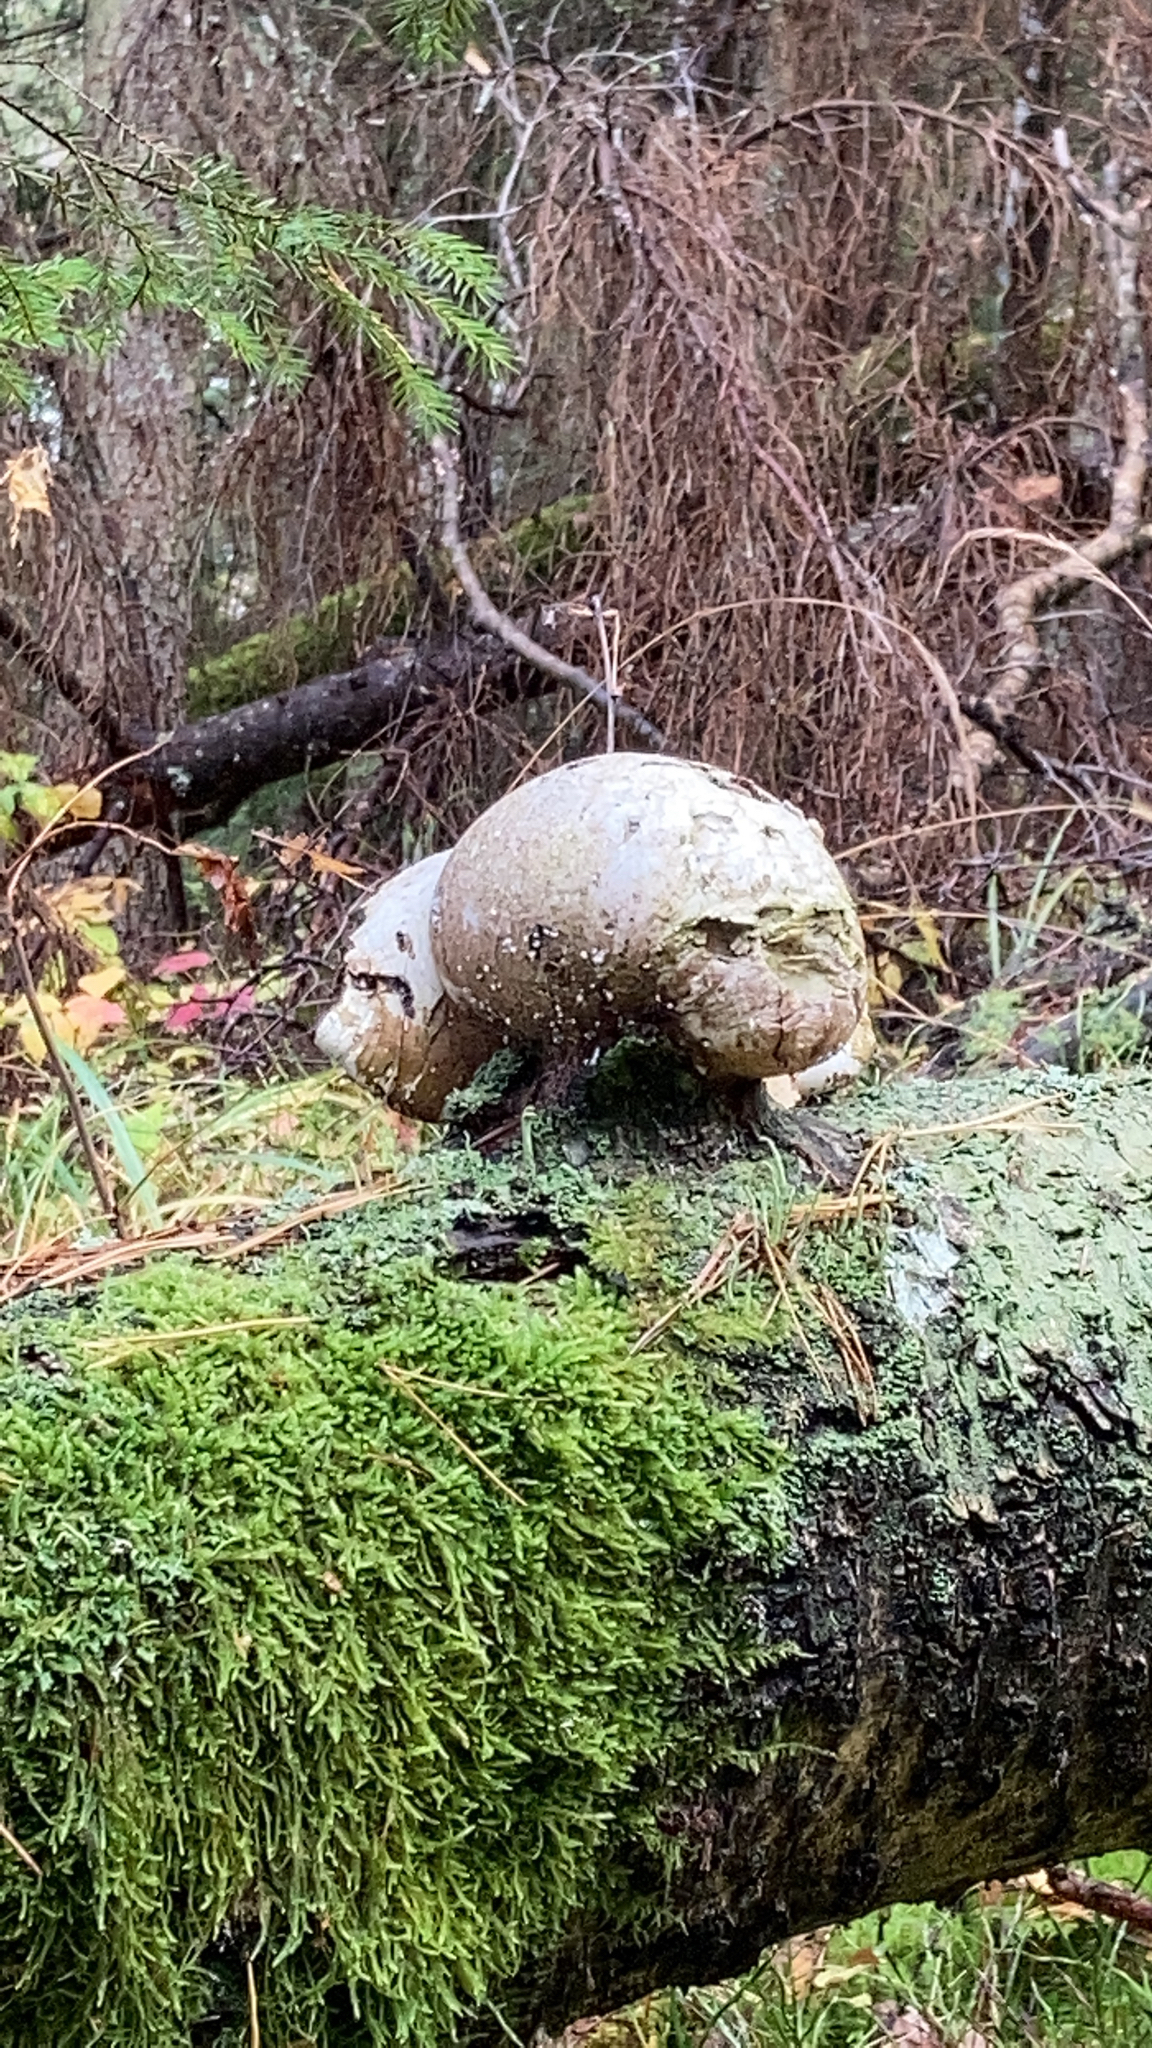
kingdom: Fungi
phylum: Basidiomycota
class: Agaricomycetes
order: Polyporales
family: Fomitopsidaceae
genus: Fomitopsis
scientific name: Fomitopsis betulina
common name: Birch polypore
